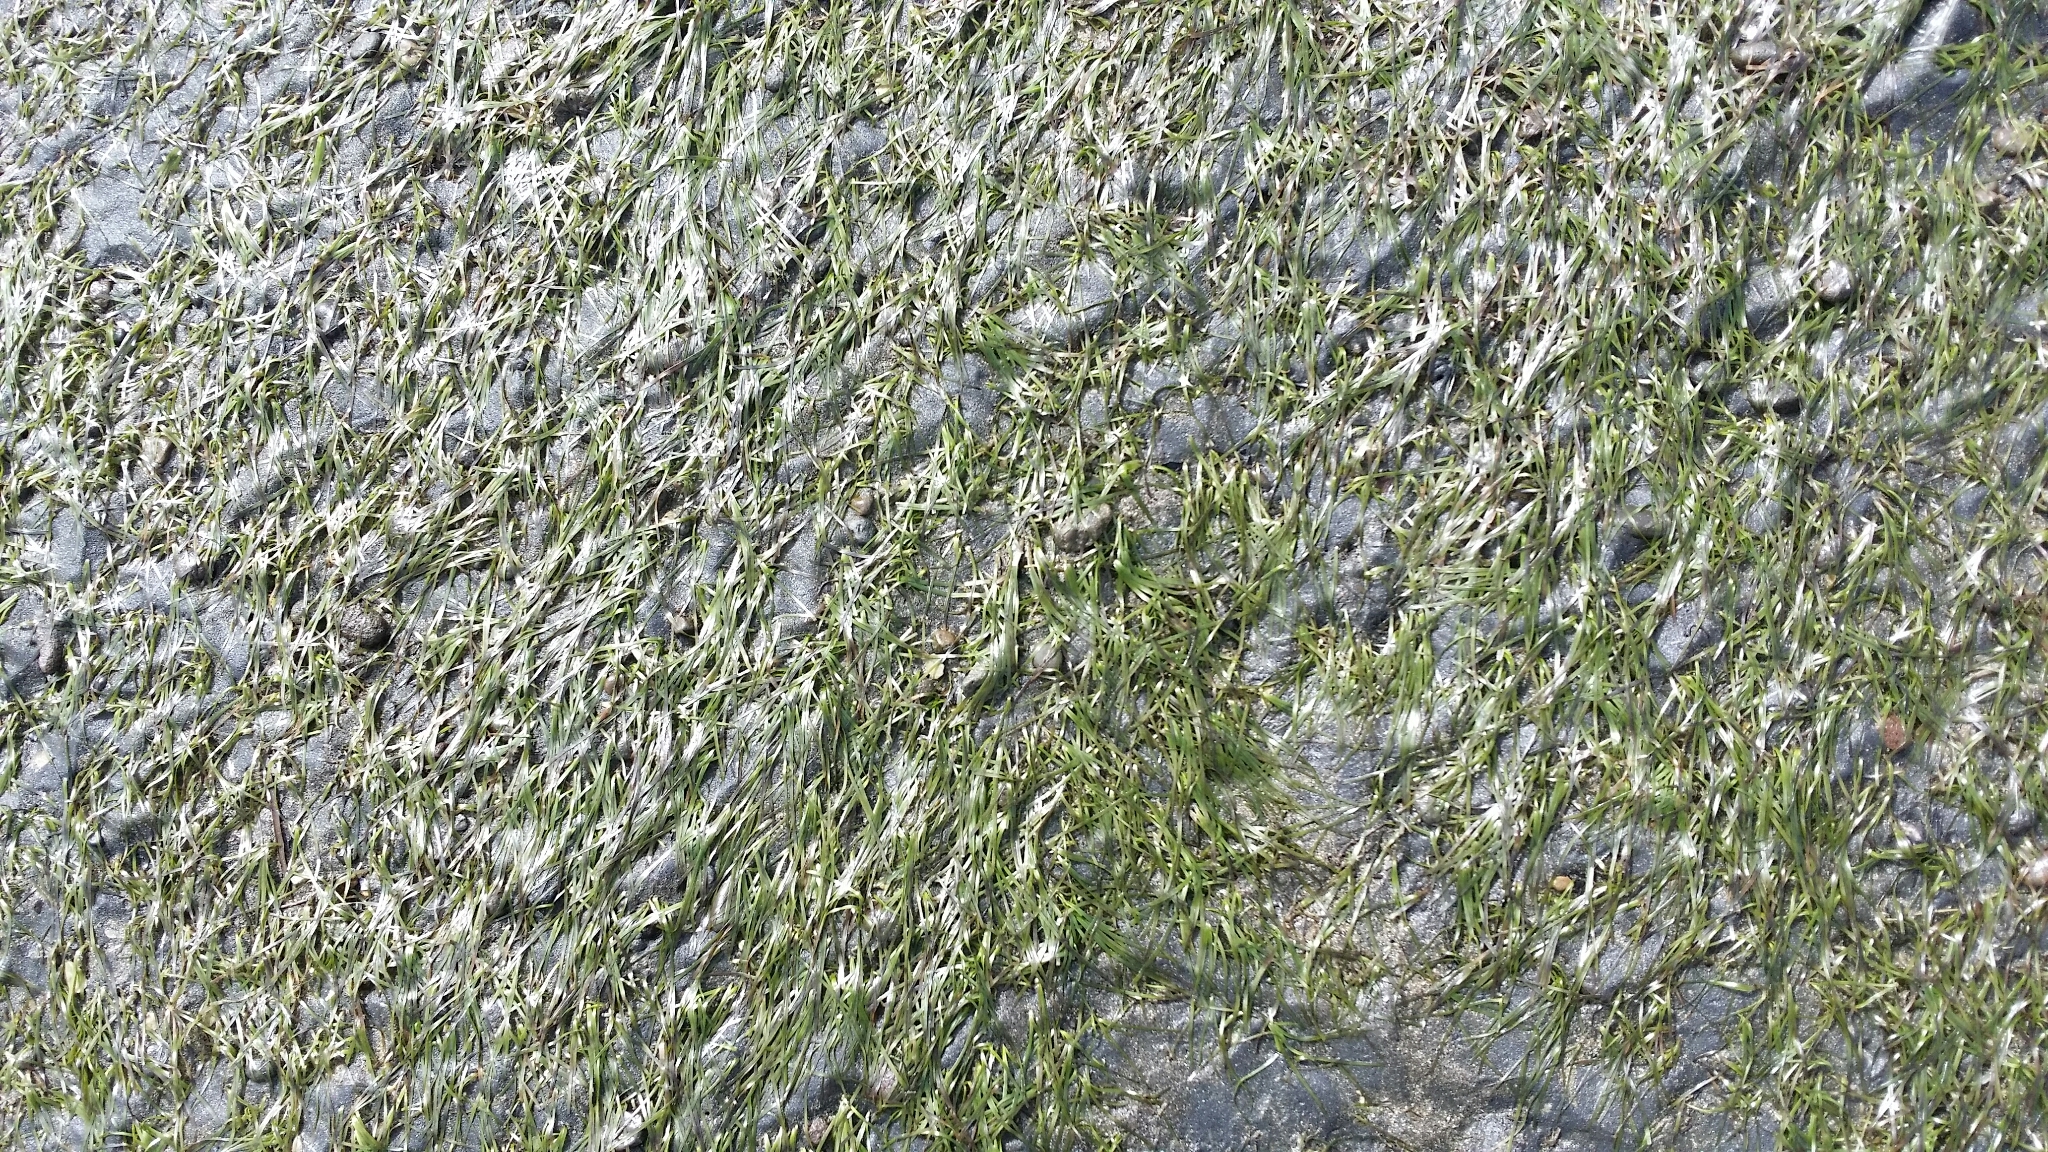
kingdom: Plantae
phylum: Tracheophyta
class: Liliopsida
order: Alismatales
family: Zosteraceae
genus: Zostera
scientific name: Zostera novazelandica
